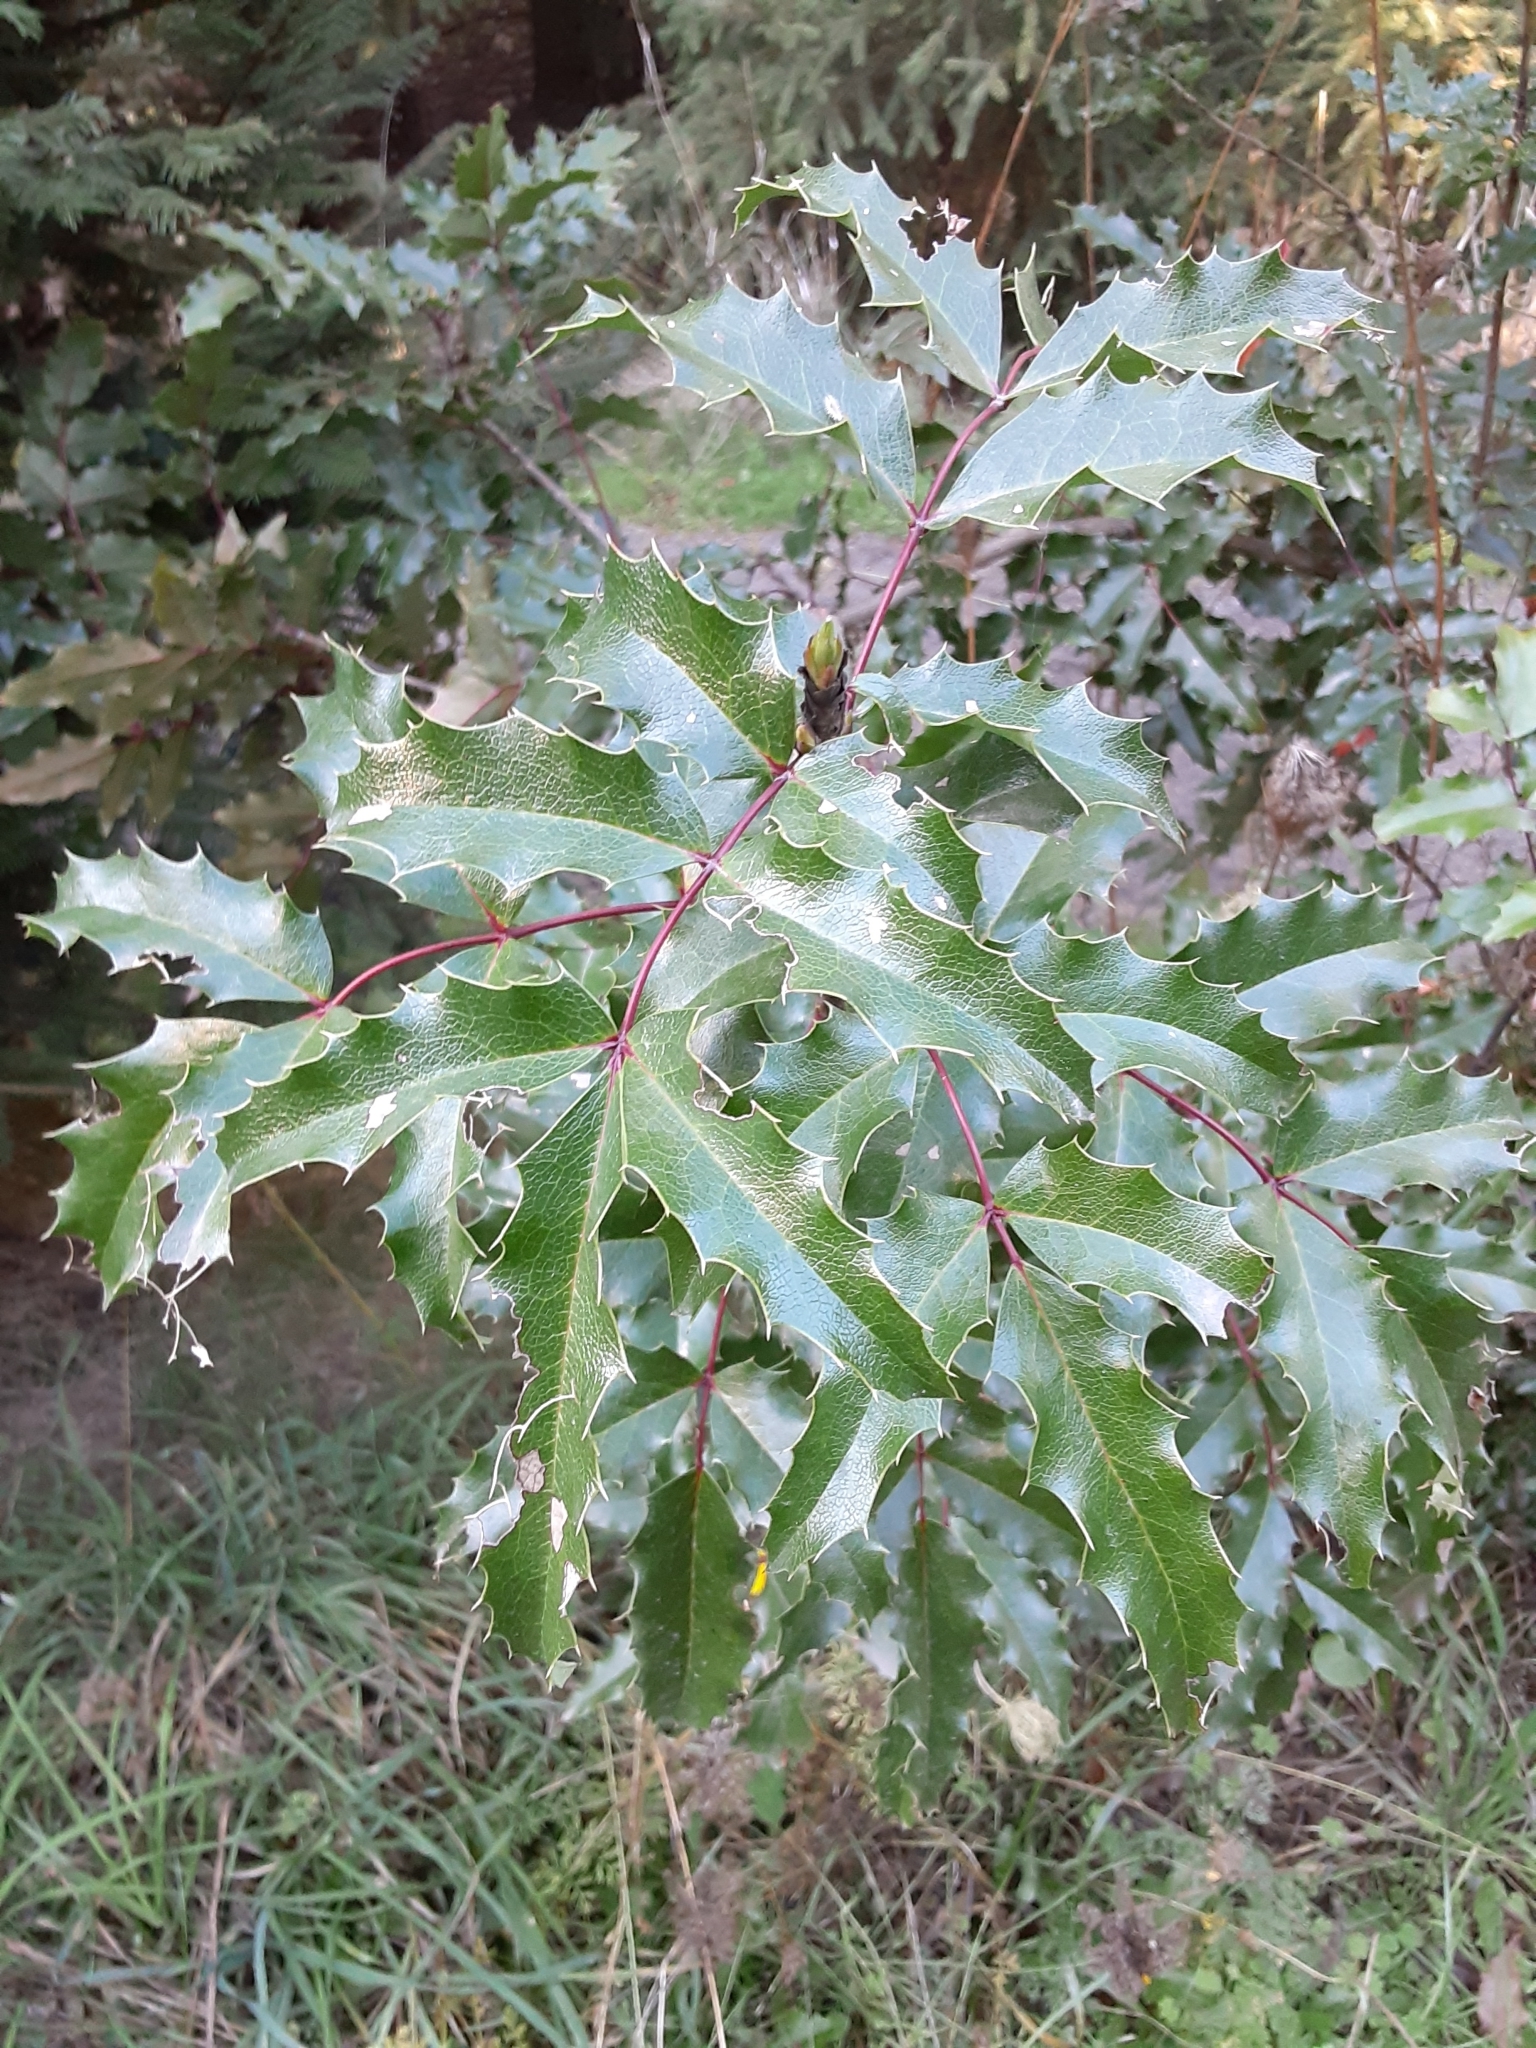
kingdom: Plantae
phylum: Tracheophyta
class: Magnoliopsida
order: Ranunculales
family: Berberidaceae
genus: Mahonia
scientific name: Mahonia aquifolium
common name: Oregon-grape
